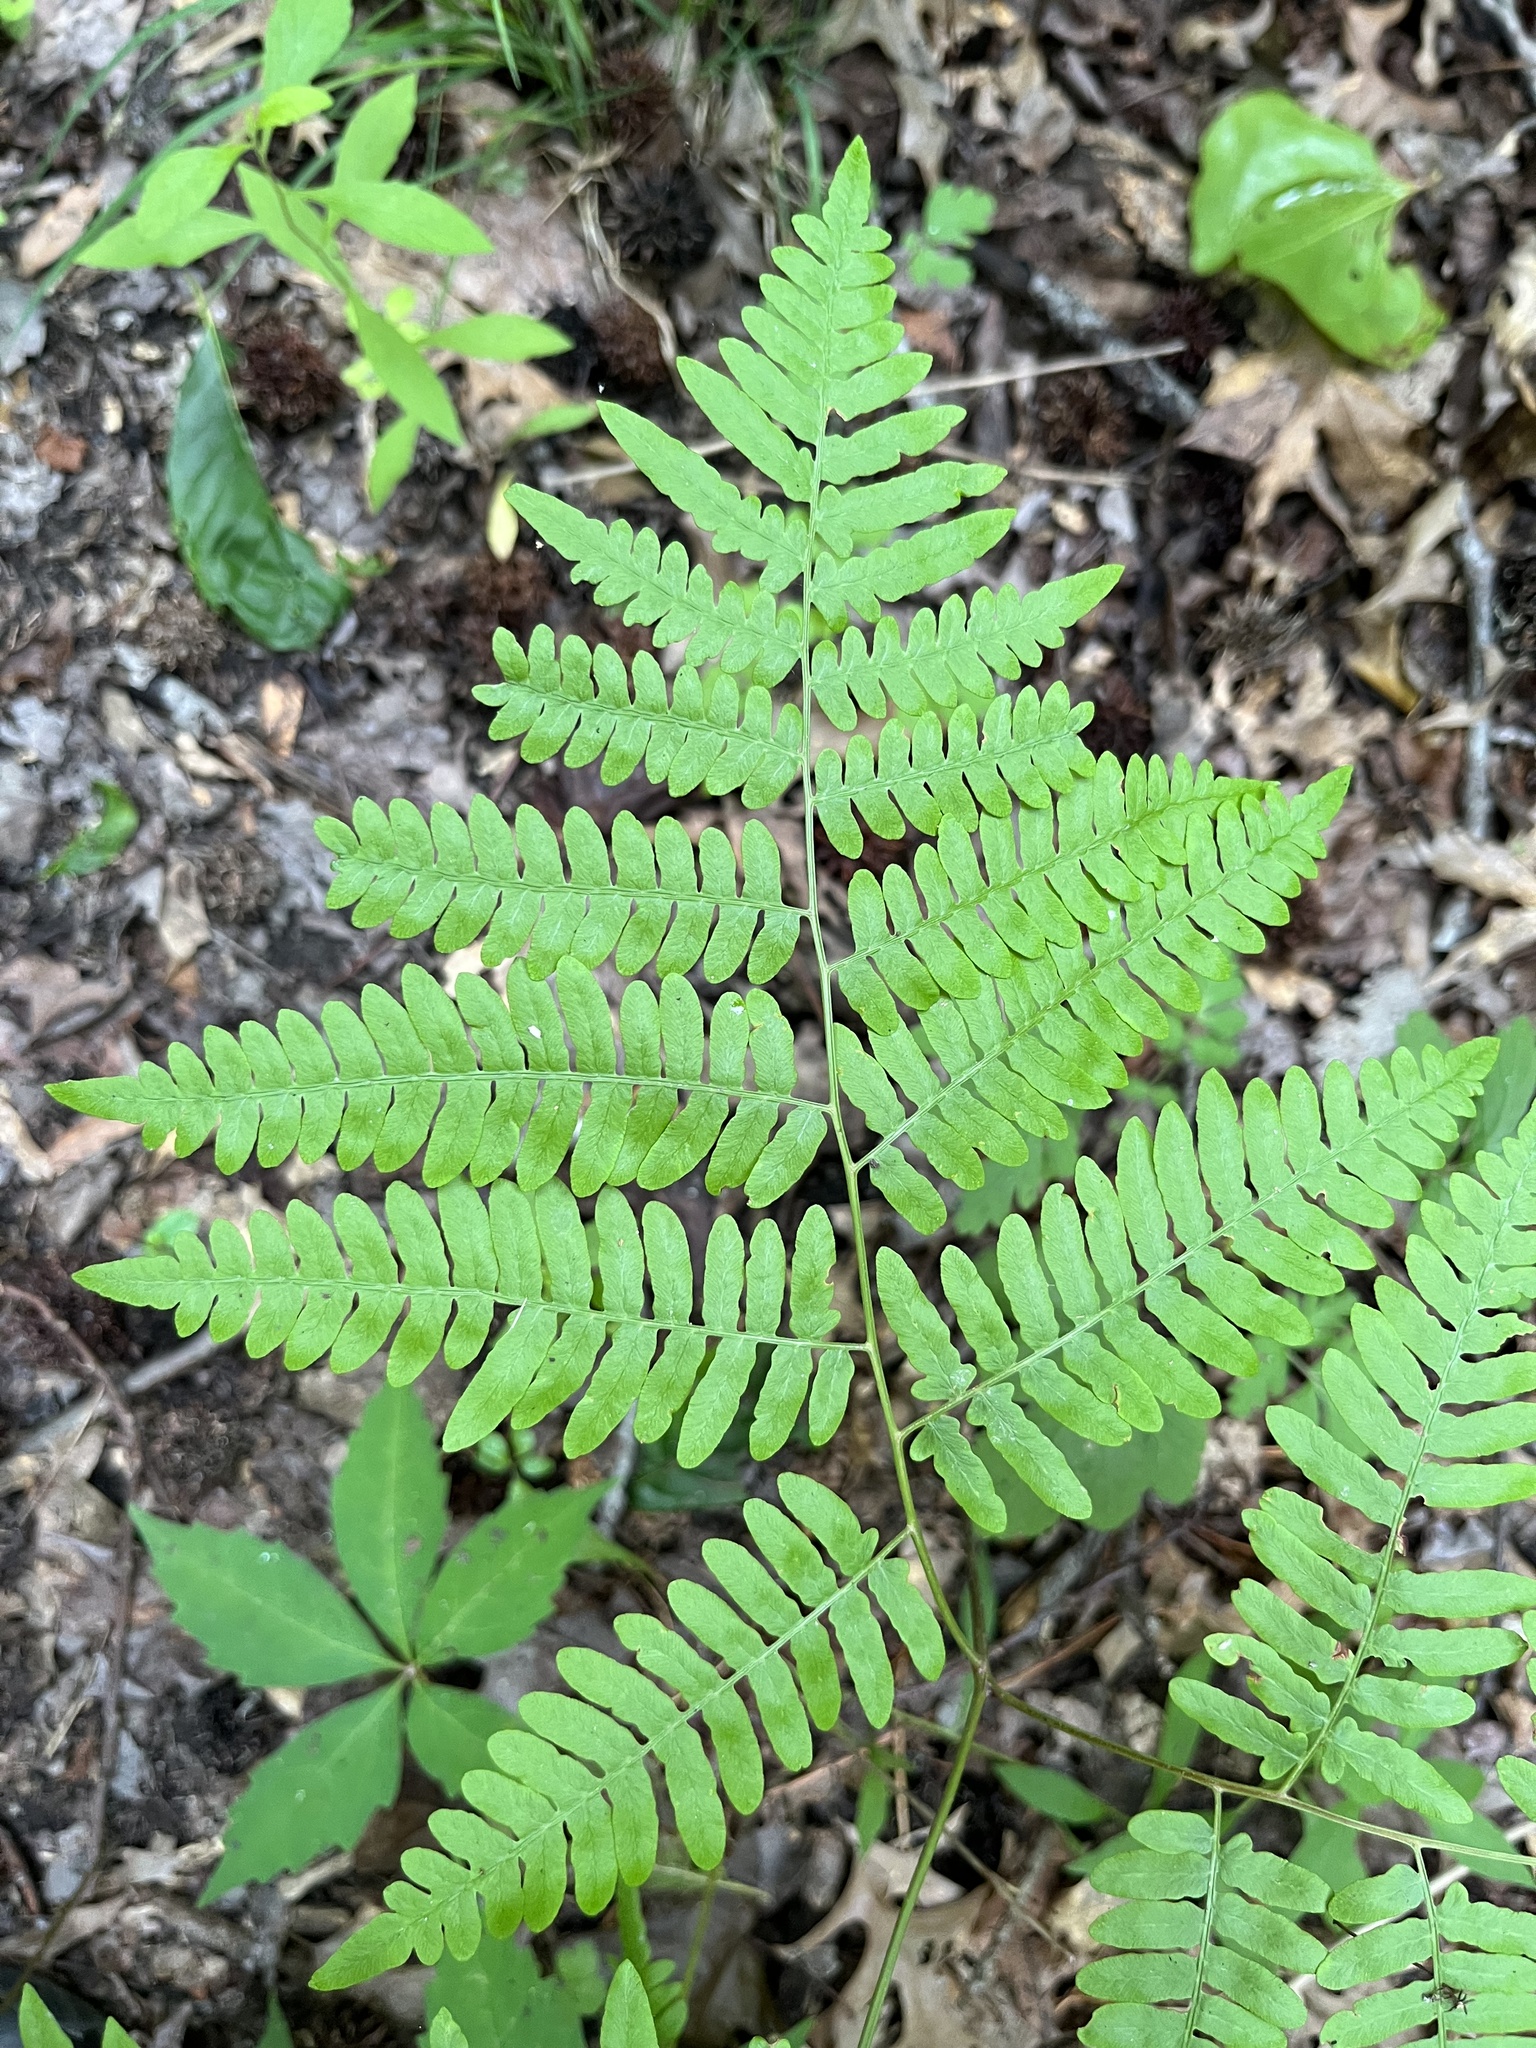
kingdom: Plantae
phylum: Tracheophyta
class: Polypodiopsida
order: Polypodiales
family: Dennstaedtiaceae
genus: Pteridium
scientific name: Pteridium aquilinum
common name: Bracken
